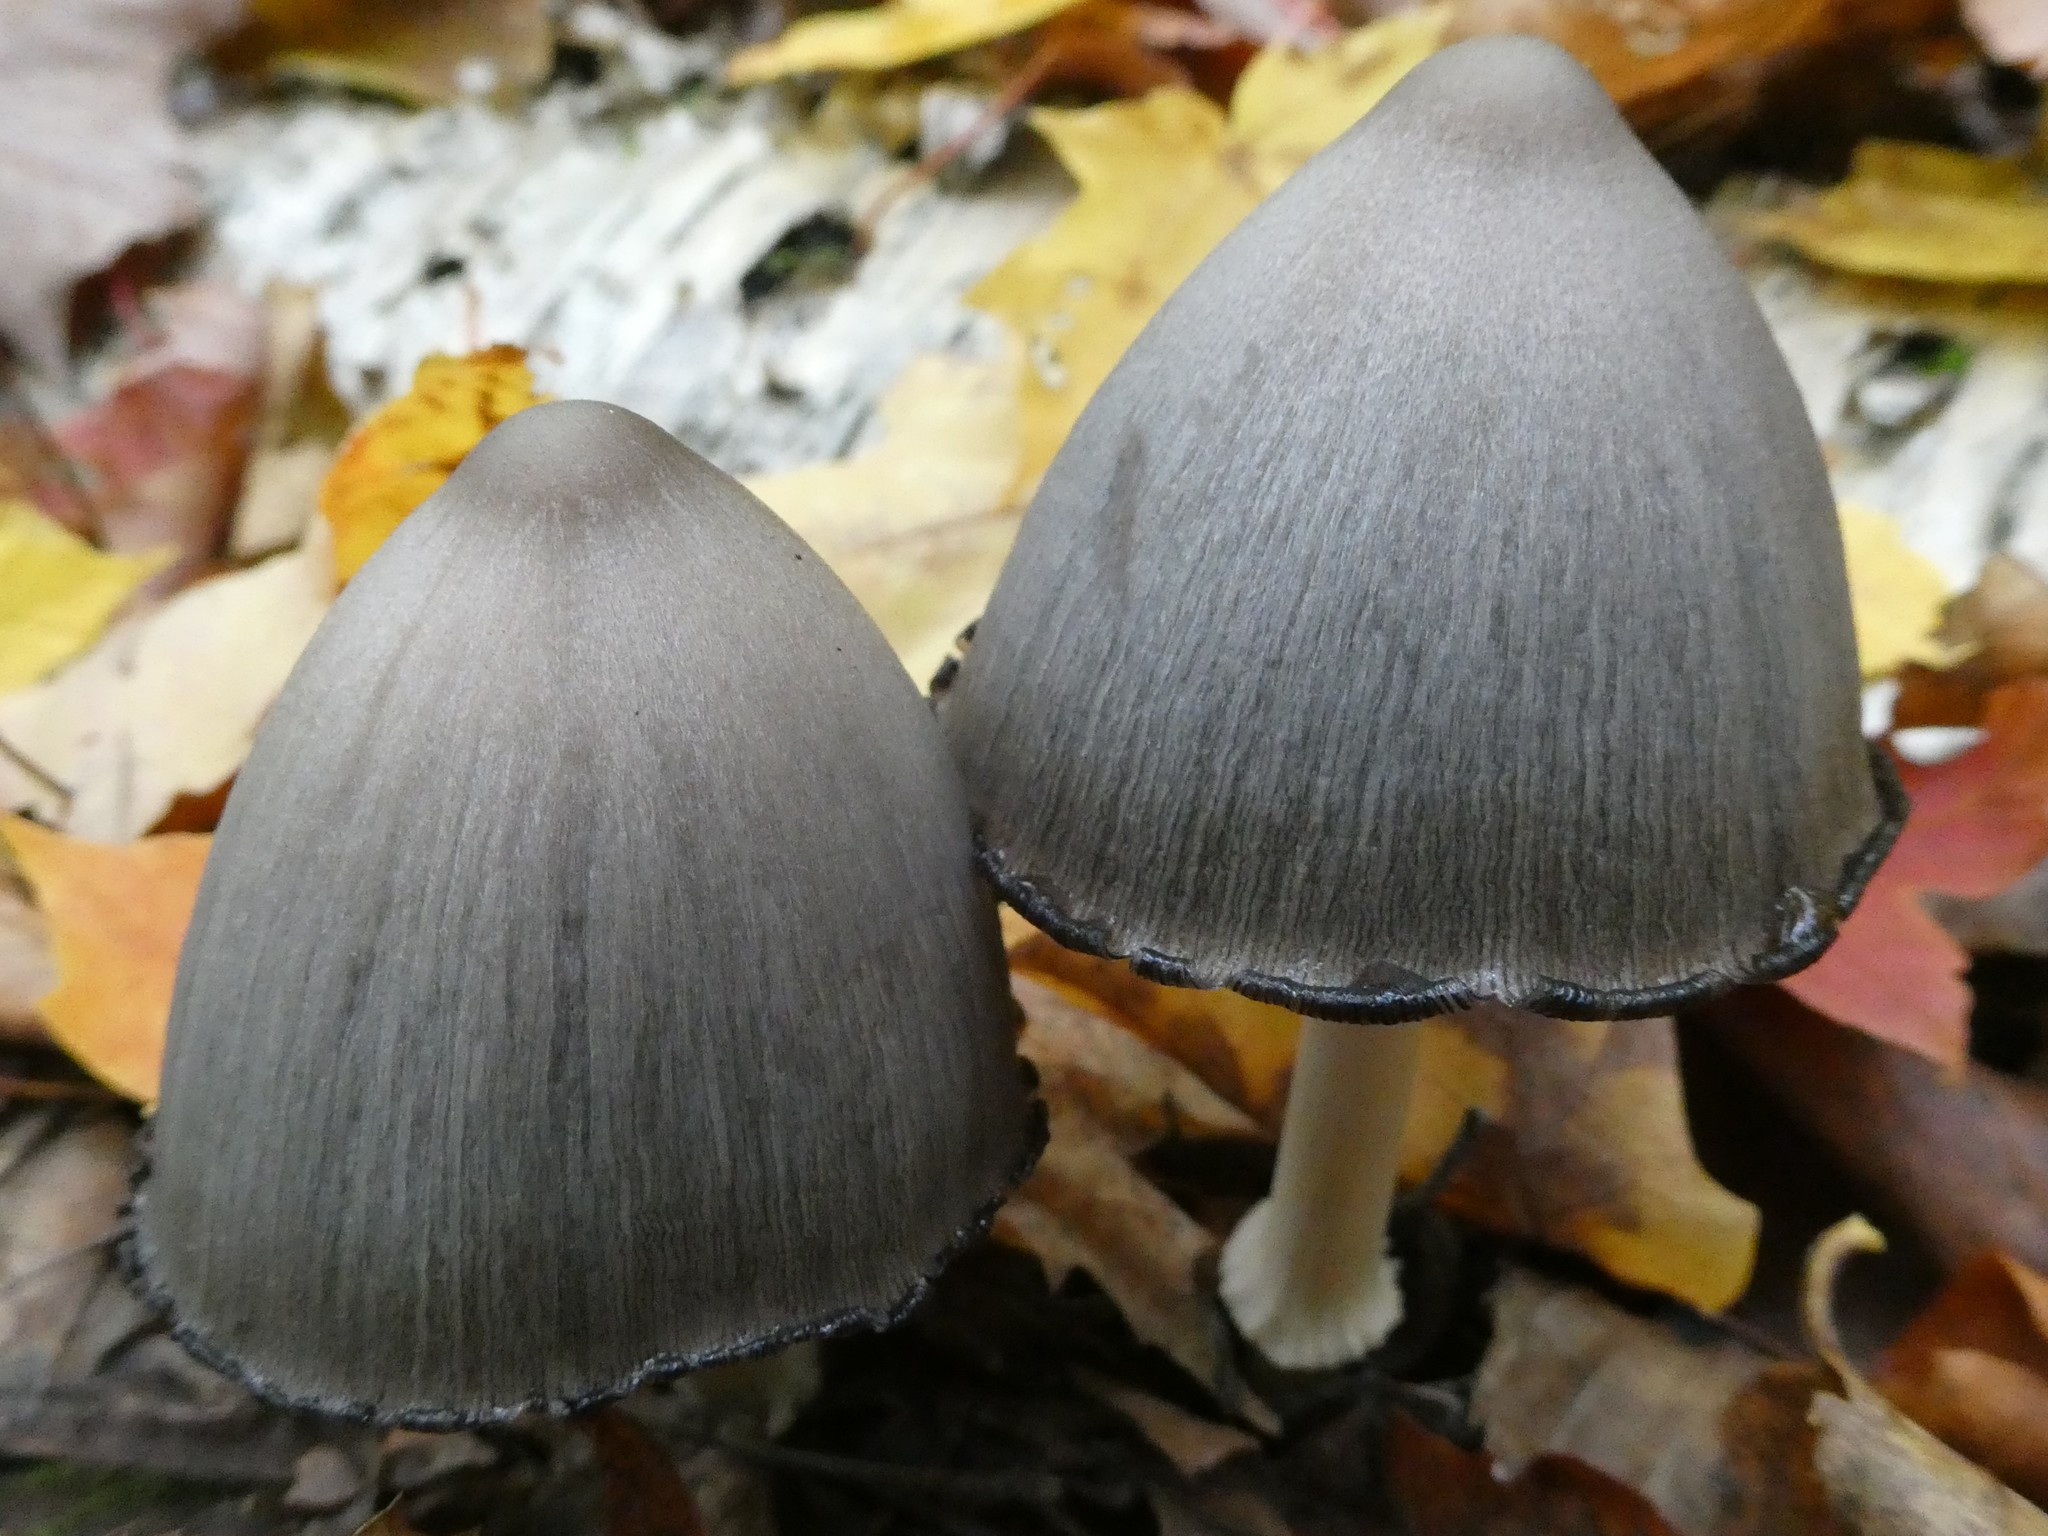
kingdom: Fungi
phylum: Basidiomycota
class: Agaricomycetes
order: Agaricales
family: Psathyrellaceae
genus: Coprinopsis
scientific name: Coprinopsis atramentaria
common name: Common ink-cap
